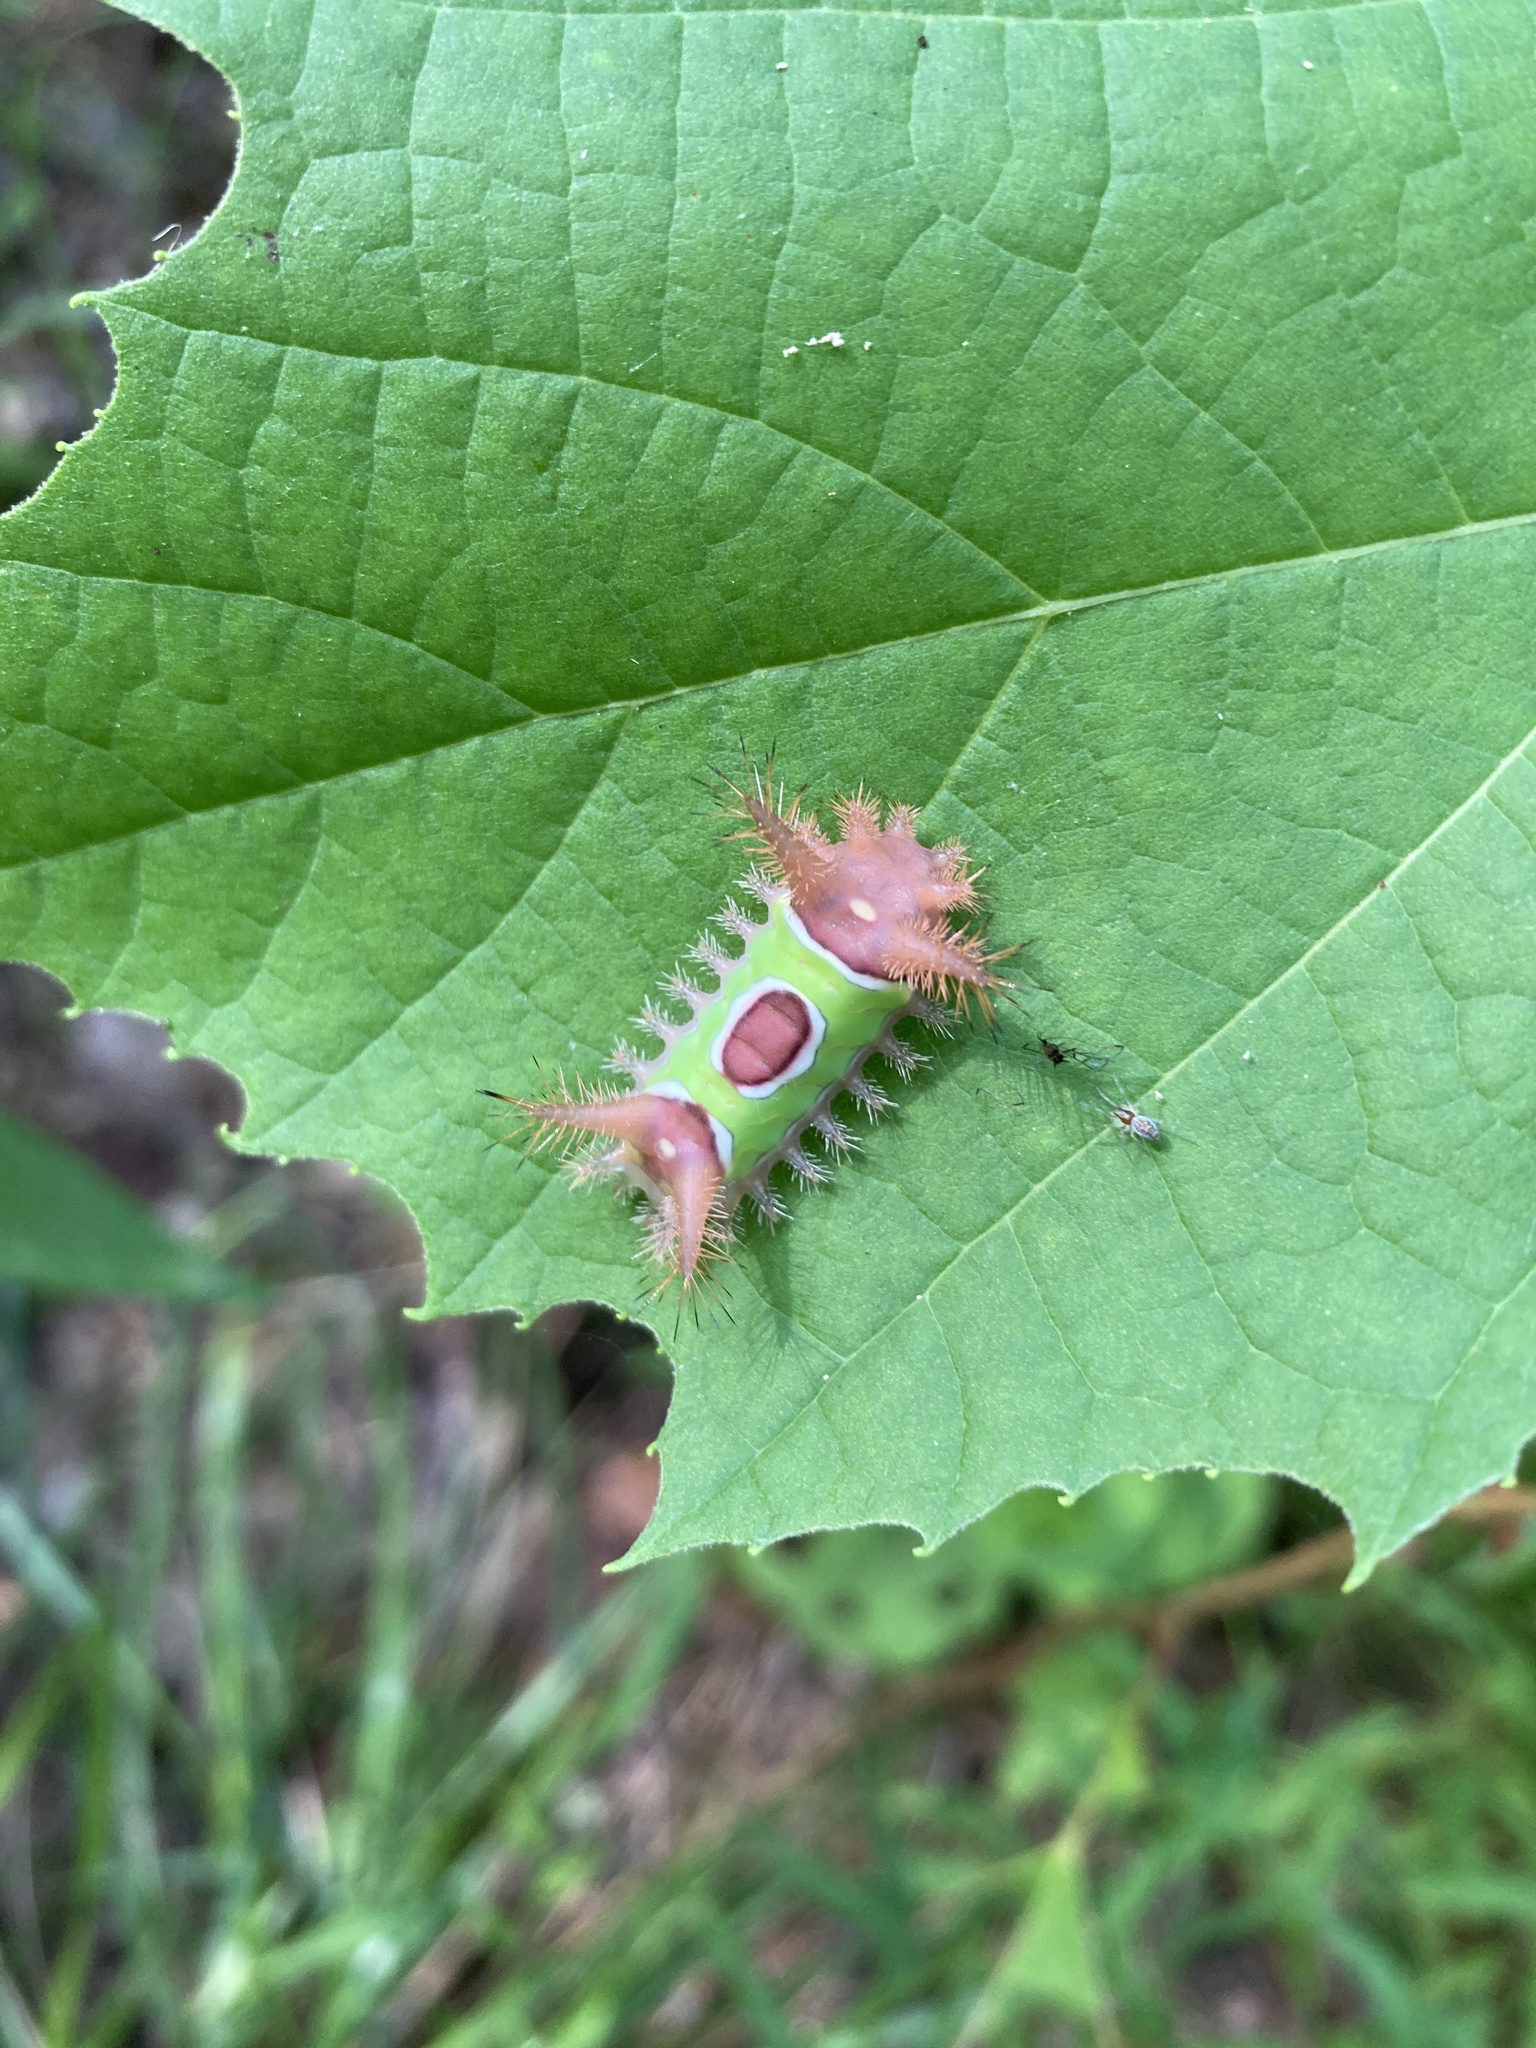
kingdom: Animalia
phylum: Arthropoda
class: Insecta
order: Lepidoptera
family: Limacodidae
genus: Acharia
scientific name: Acharia stimulea
